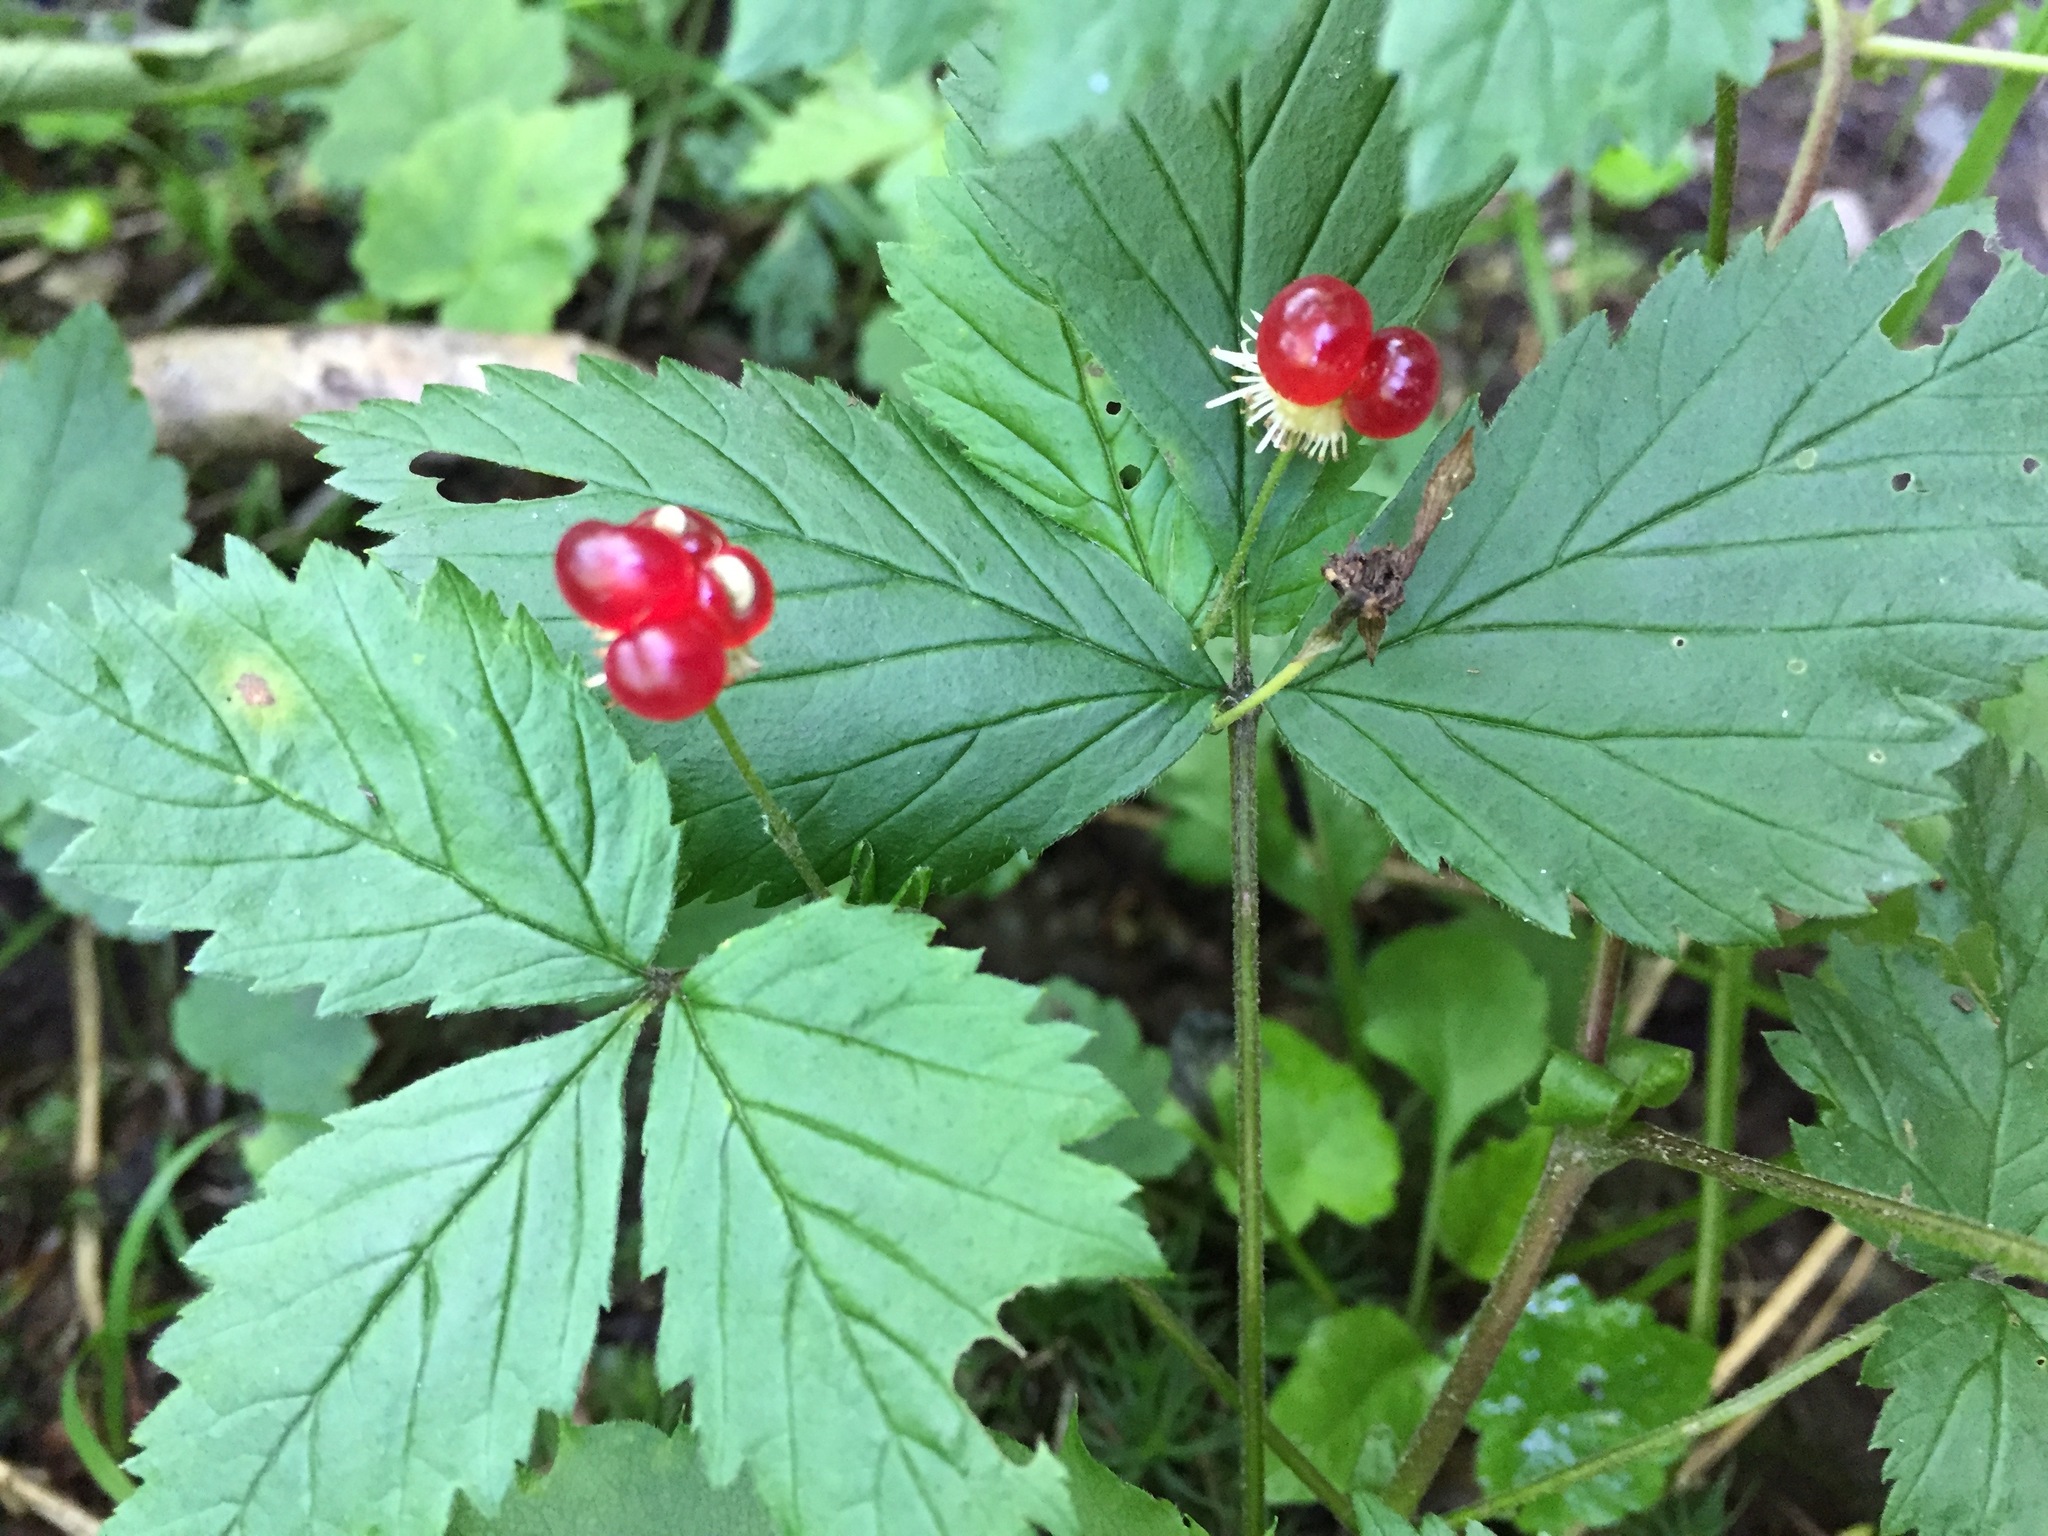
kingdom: Plantae
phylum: Tracheophyta
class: Magnoliopsida
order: Rosales
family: Rosaceae
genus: Rubus
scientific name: Rubus pubescens
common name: Dwarf raspberry
